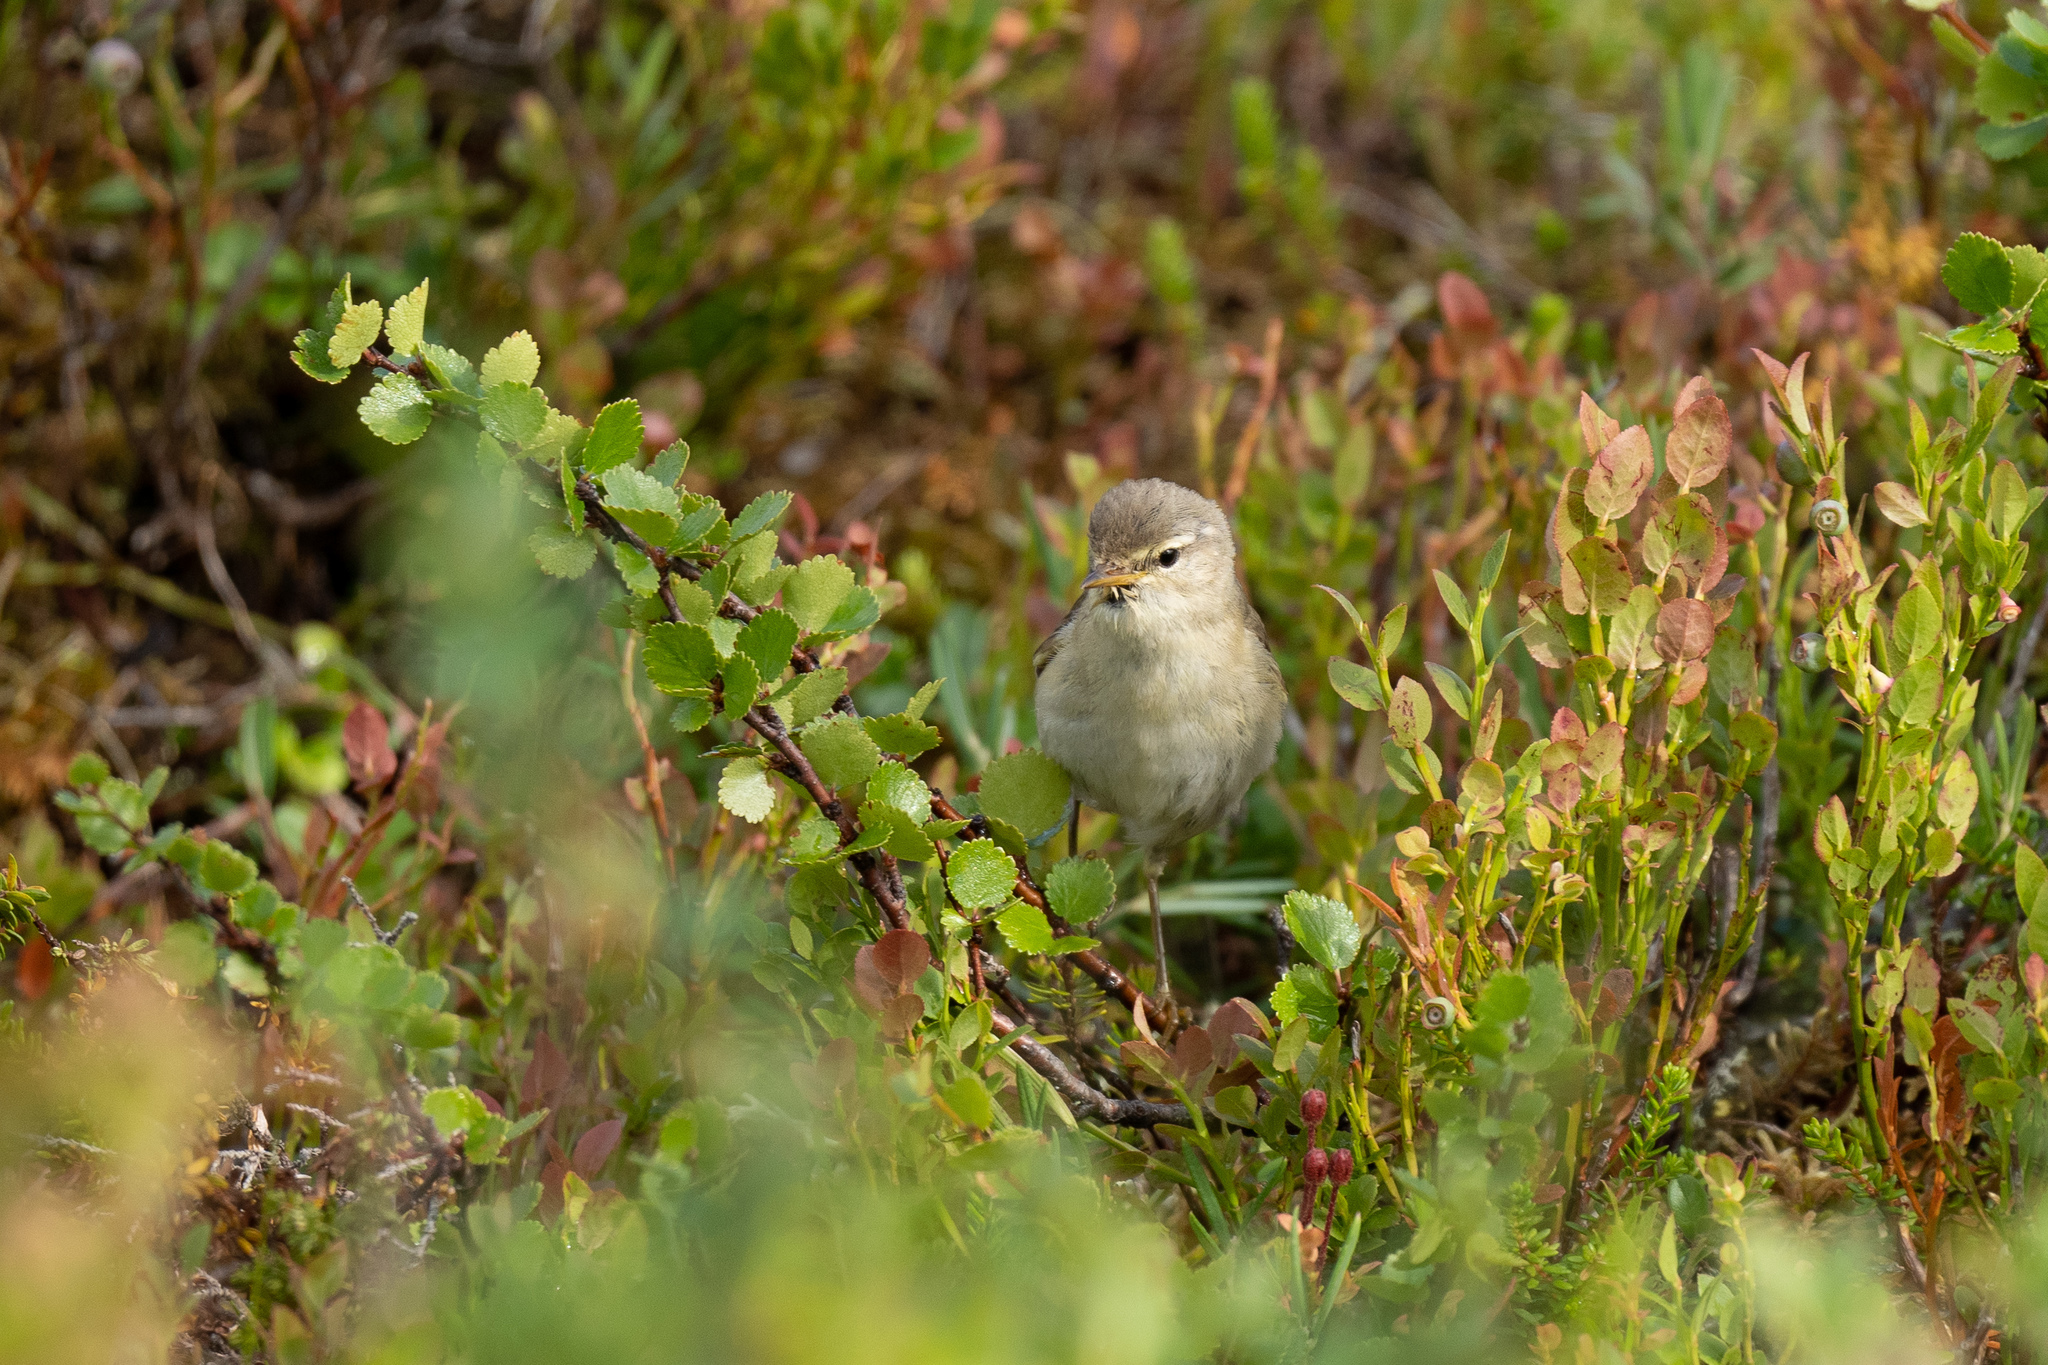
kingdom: Animalia
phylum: Chordata
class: Aves
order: Passeriformes
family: Phylloscopidae
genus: Phylloscopus
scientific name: Phylloscopus trochilus
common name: Willow warbler
